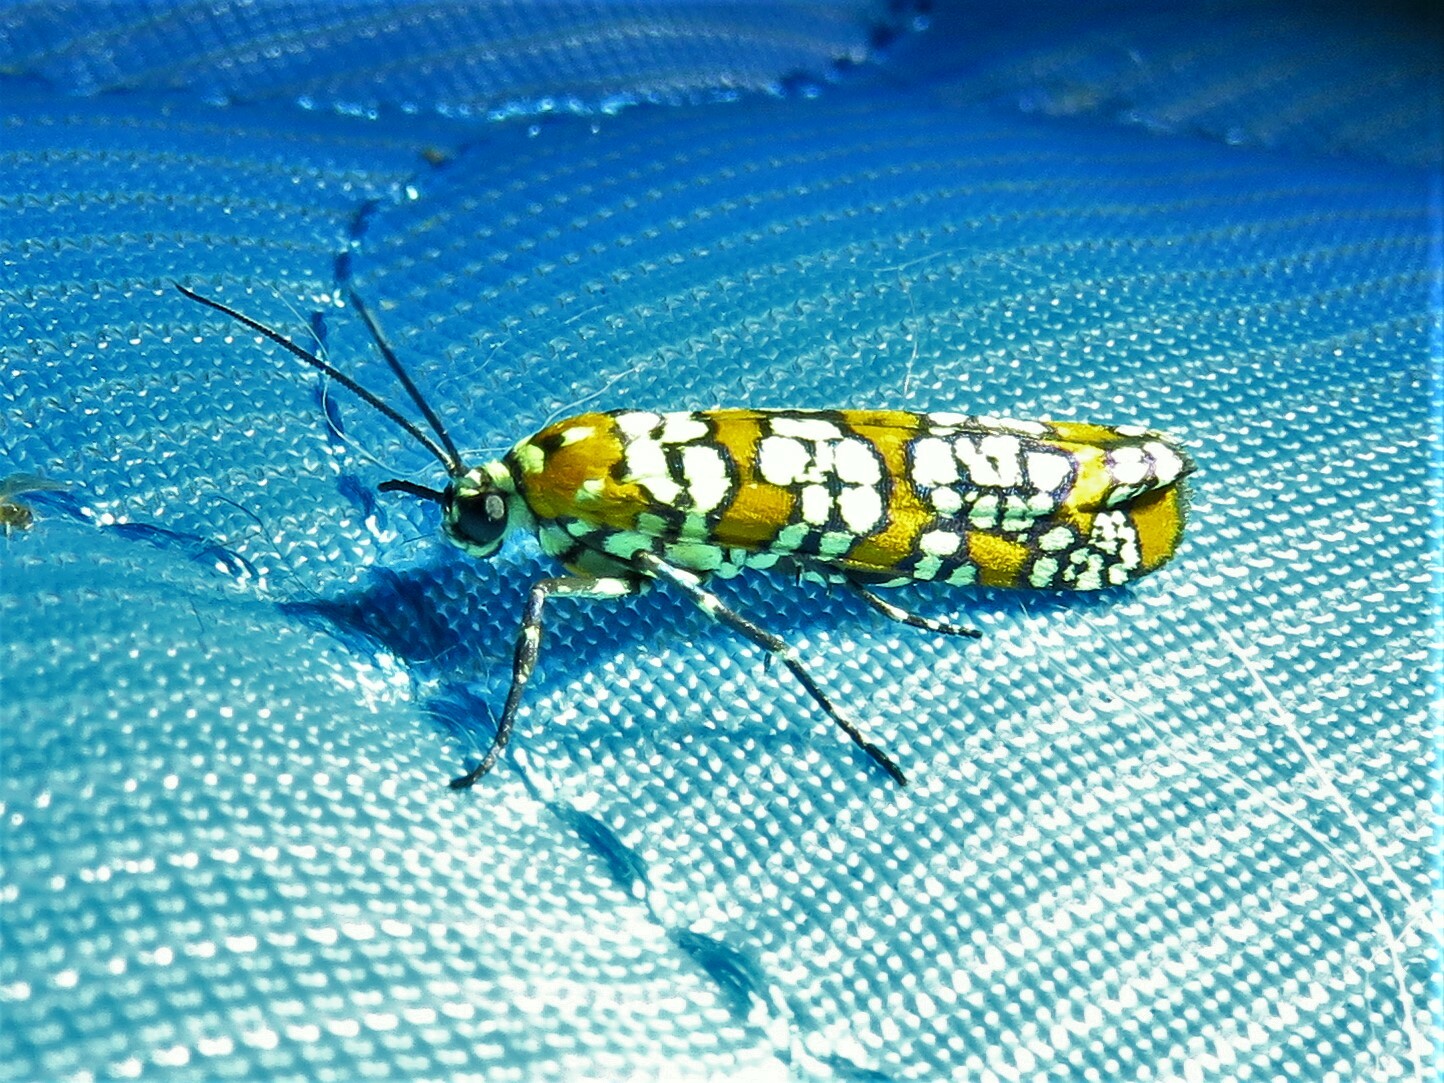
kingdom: Animalia
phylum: Arthropoda
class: Insecta
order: Lepidoptera
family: Attevidae
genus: Atteva
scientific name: Atteva punctella
